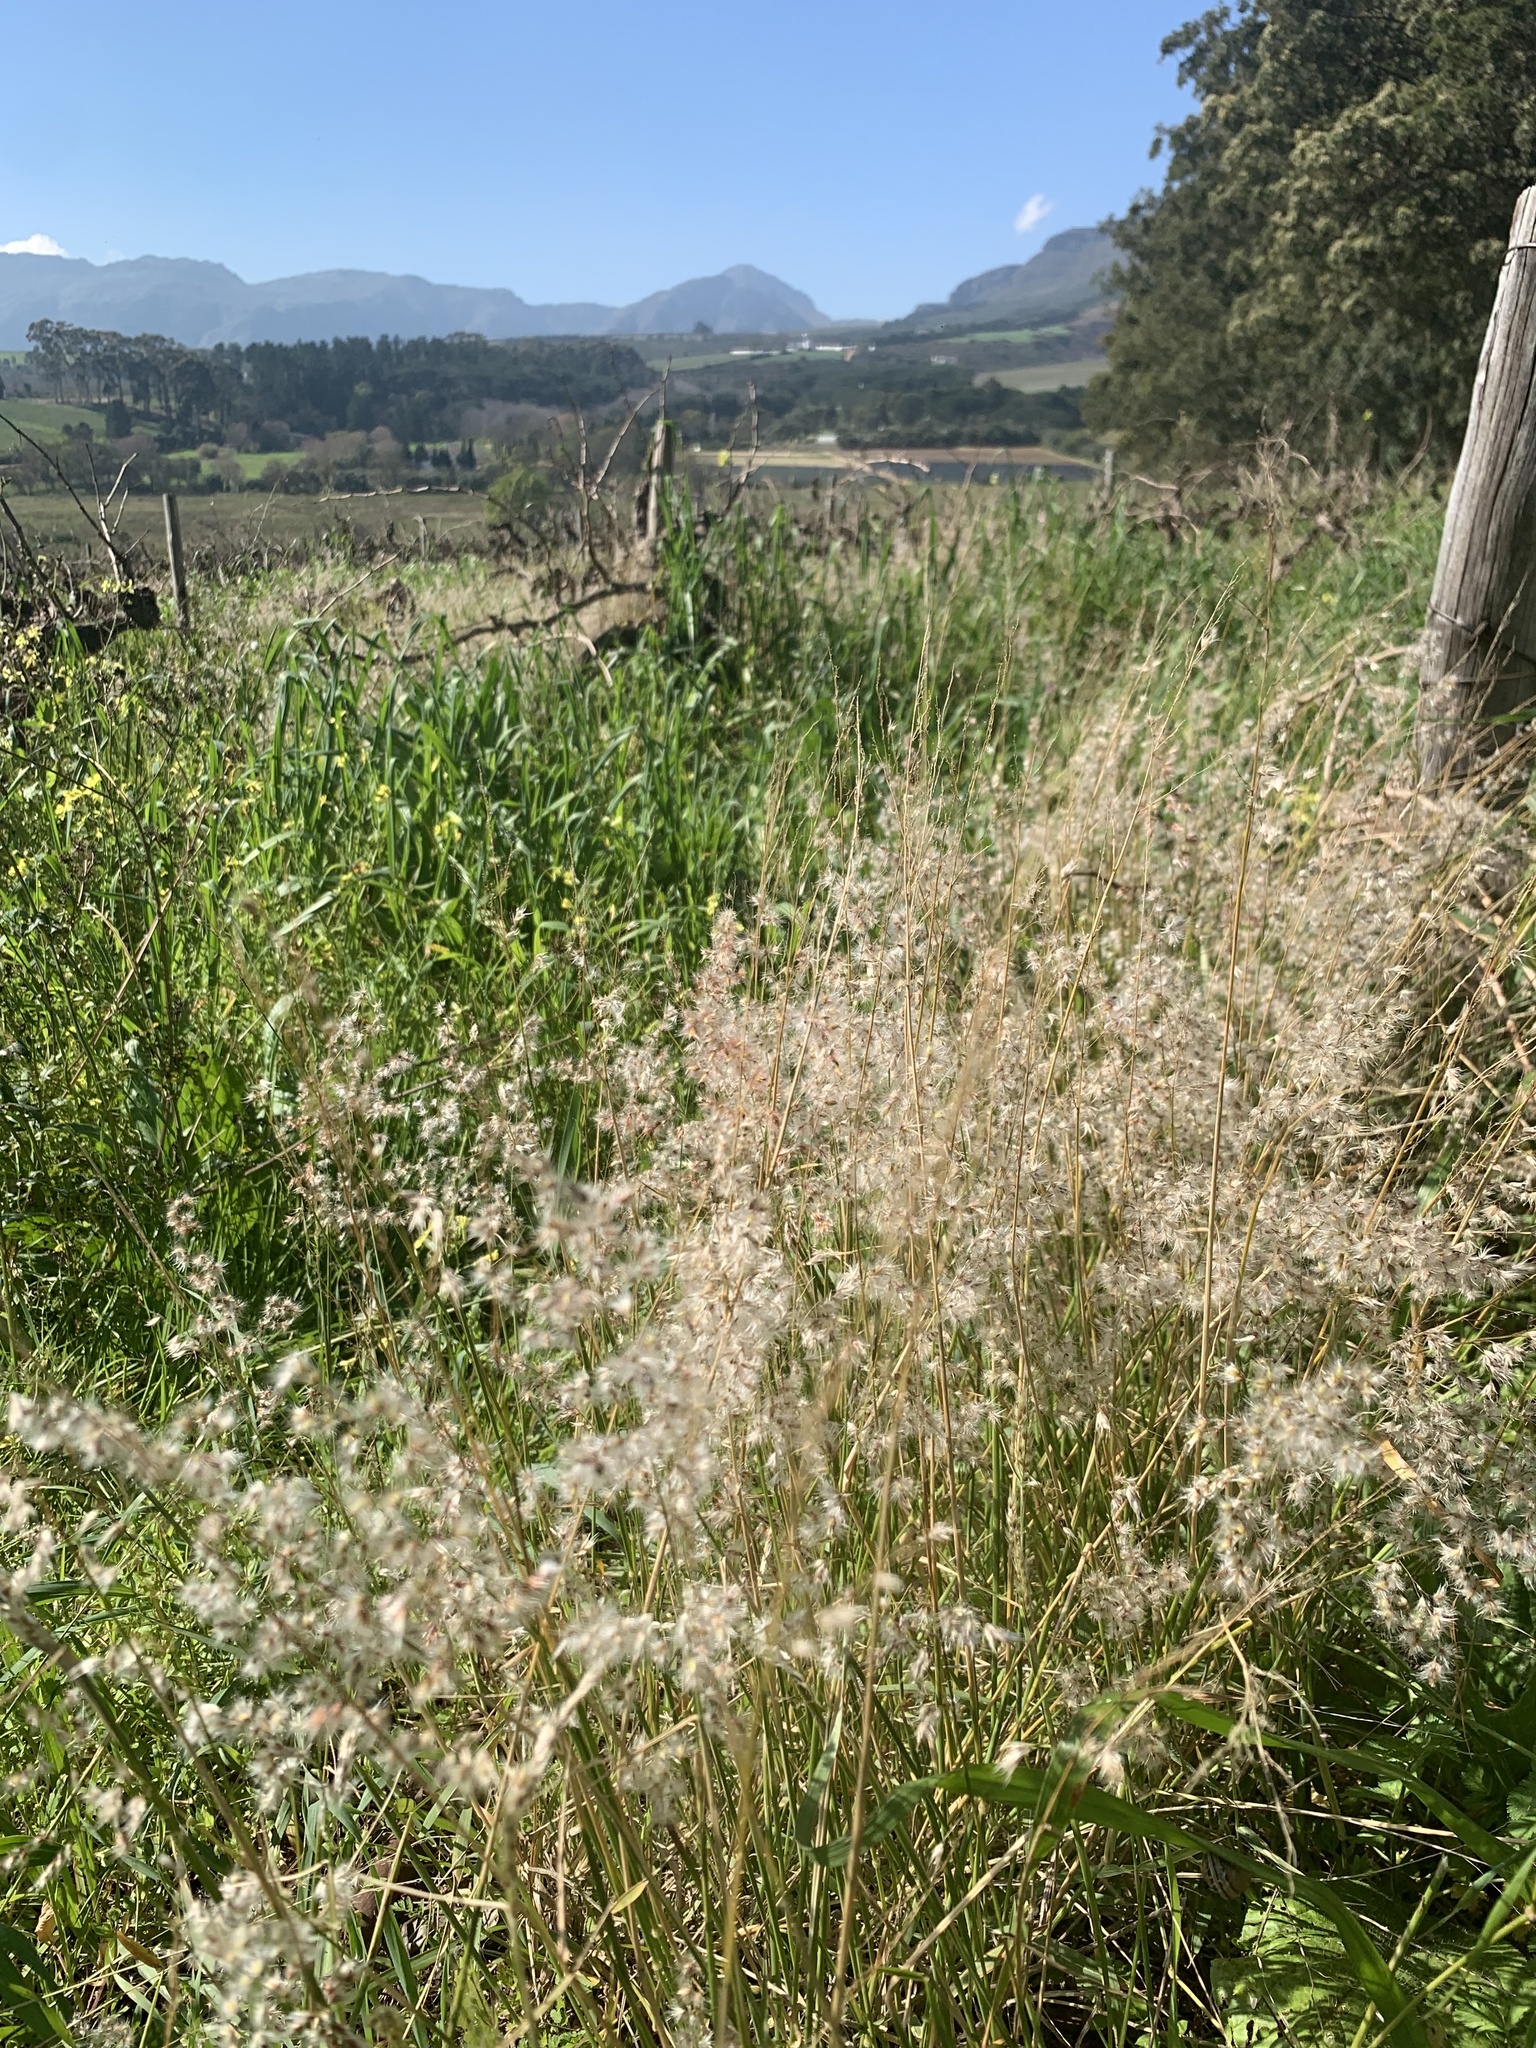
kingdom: Plantae
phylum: Tracheophyta
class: Liliopsida
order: Poales
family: Poaceae
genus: Melinis
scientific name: Melinis repens
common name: Rose natal grass
